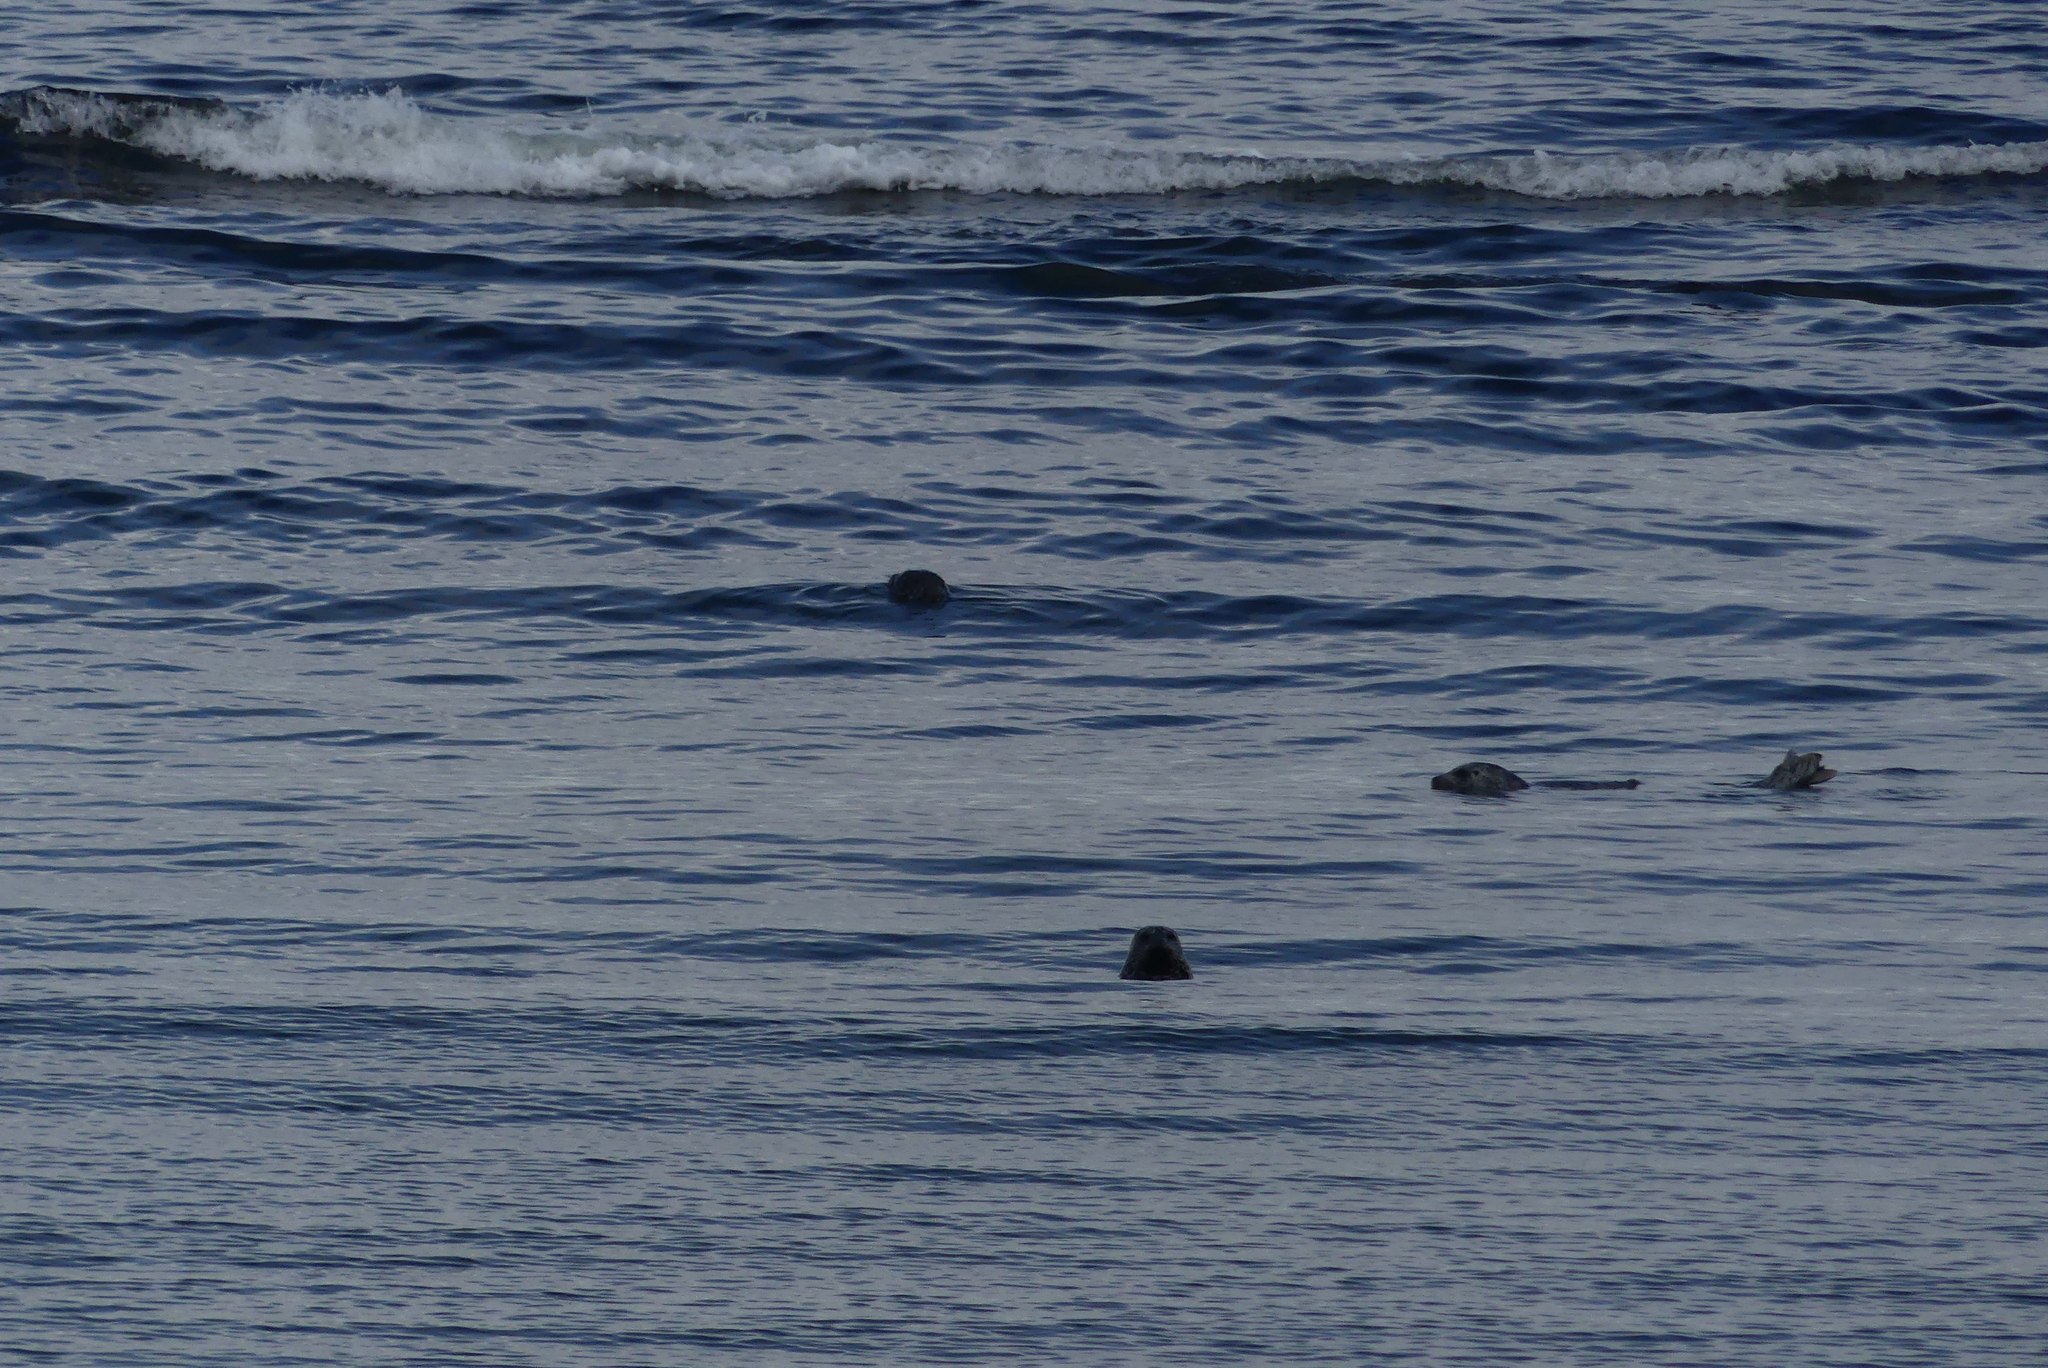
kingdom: Animalia
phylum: Chordata
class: Mammalia
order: Carnivora
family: Phocidae
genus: Phoca
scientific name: Phoca vitulina
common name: Harbor seal
